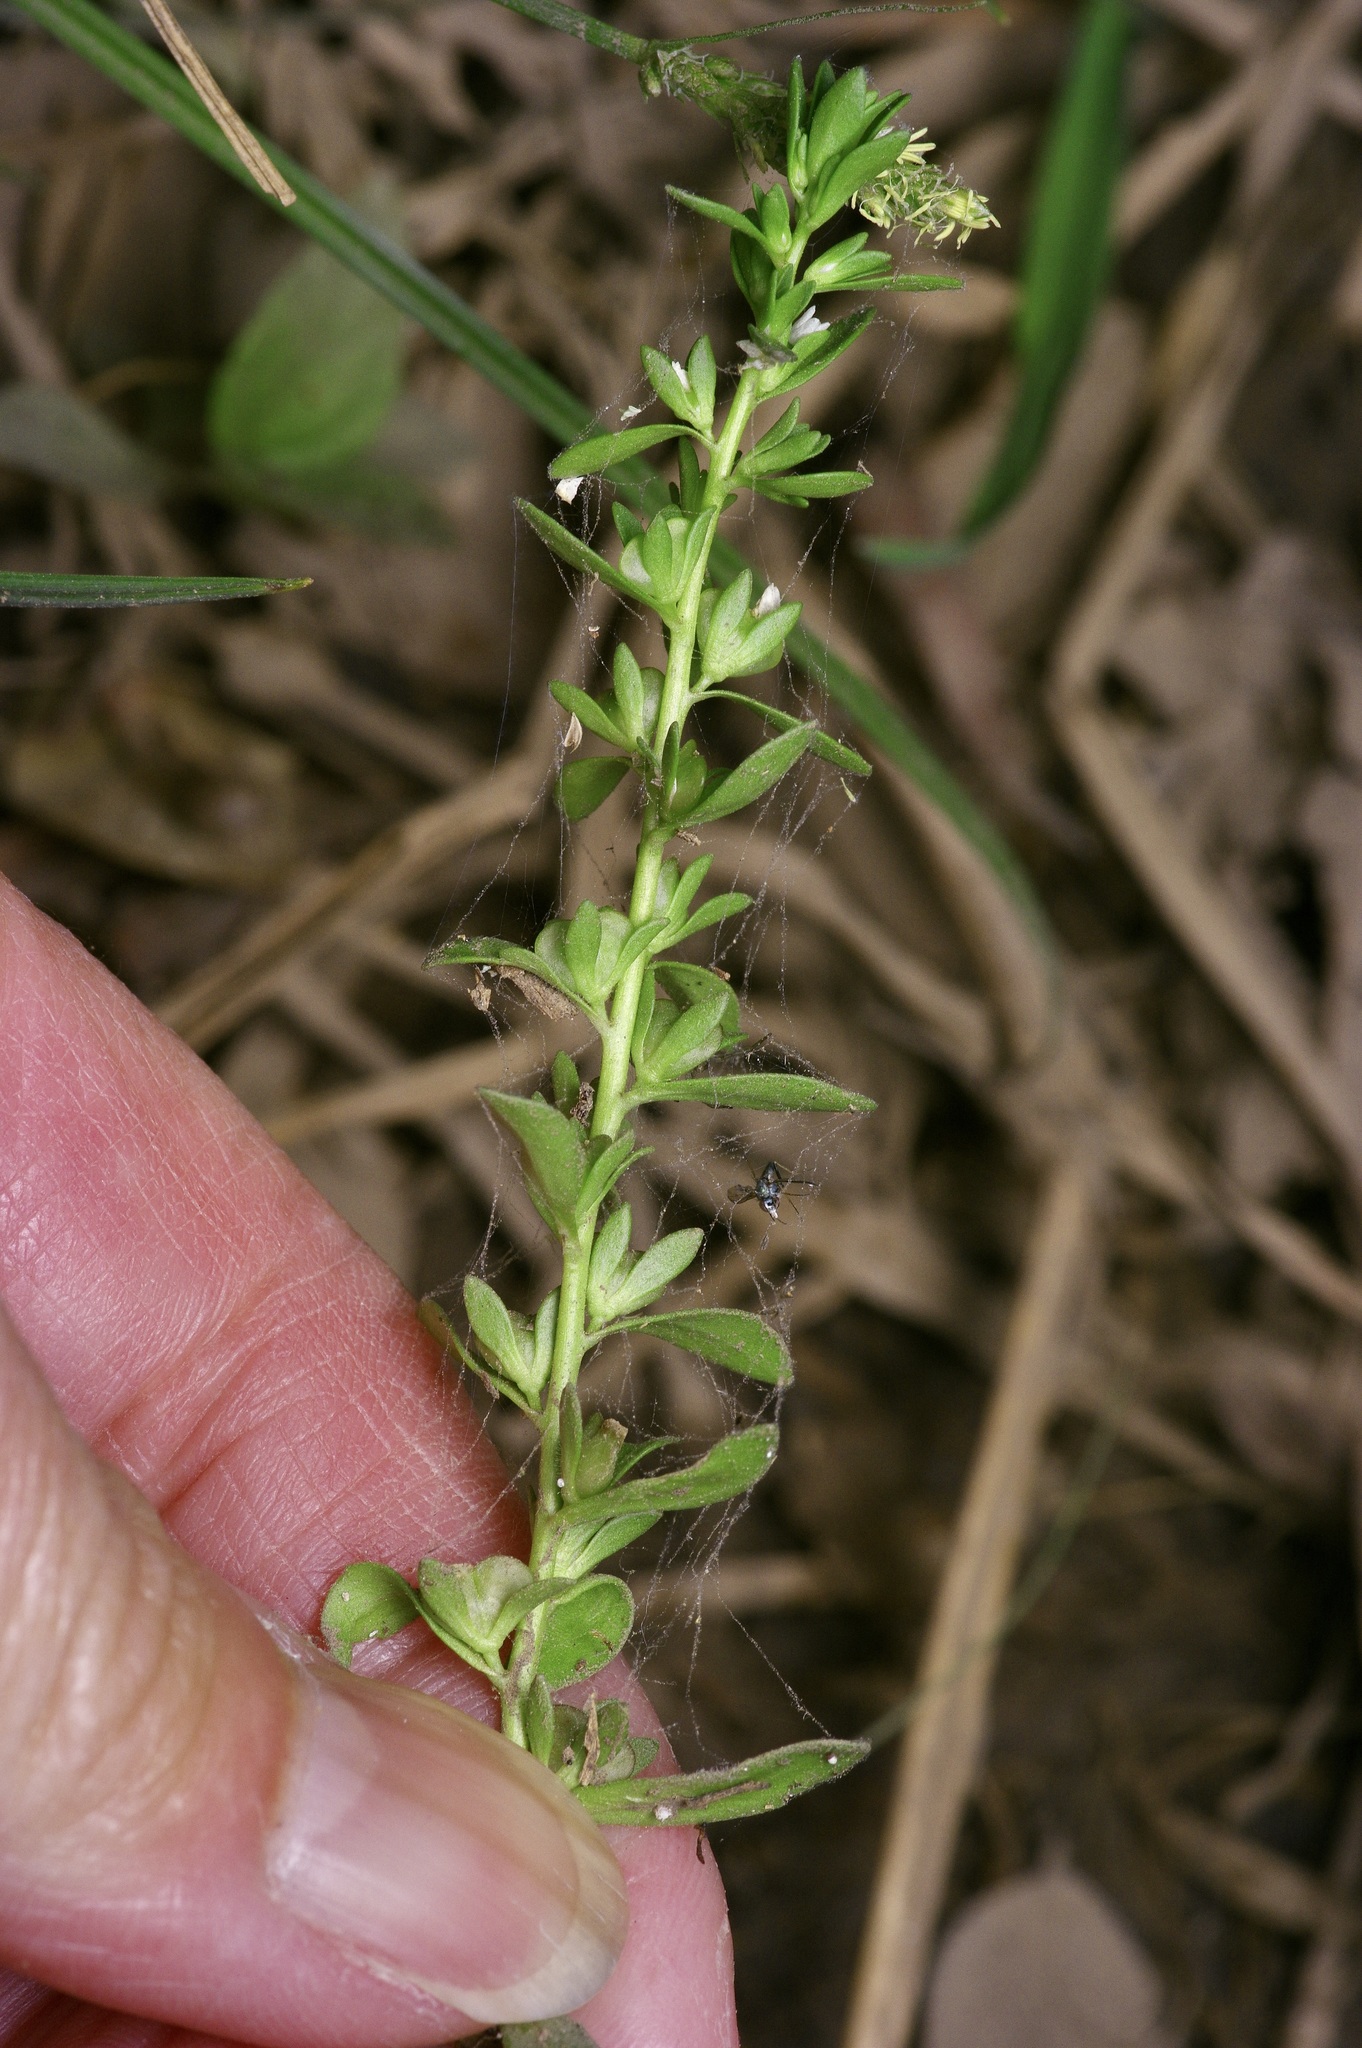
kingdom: Plantae
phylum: Tracheophyta
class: Magnoliopsida
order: Lamiales
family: Plantaginaceae
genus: Veronica
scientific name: Veronica peregrina
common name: Neckweed
